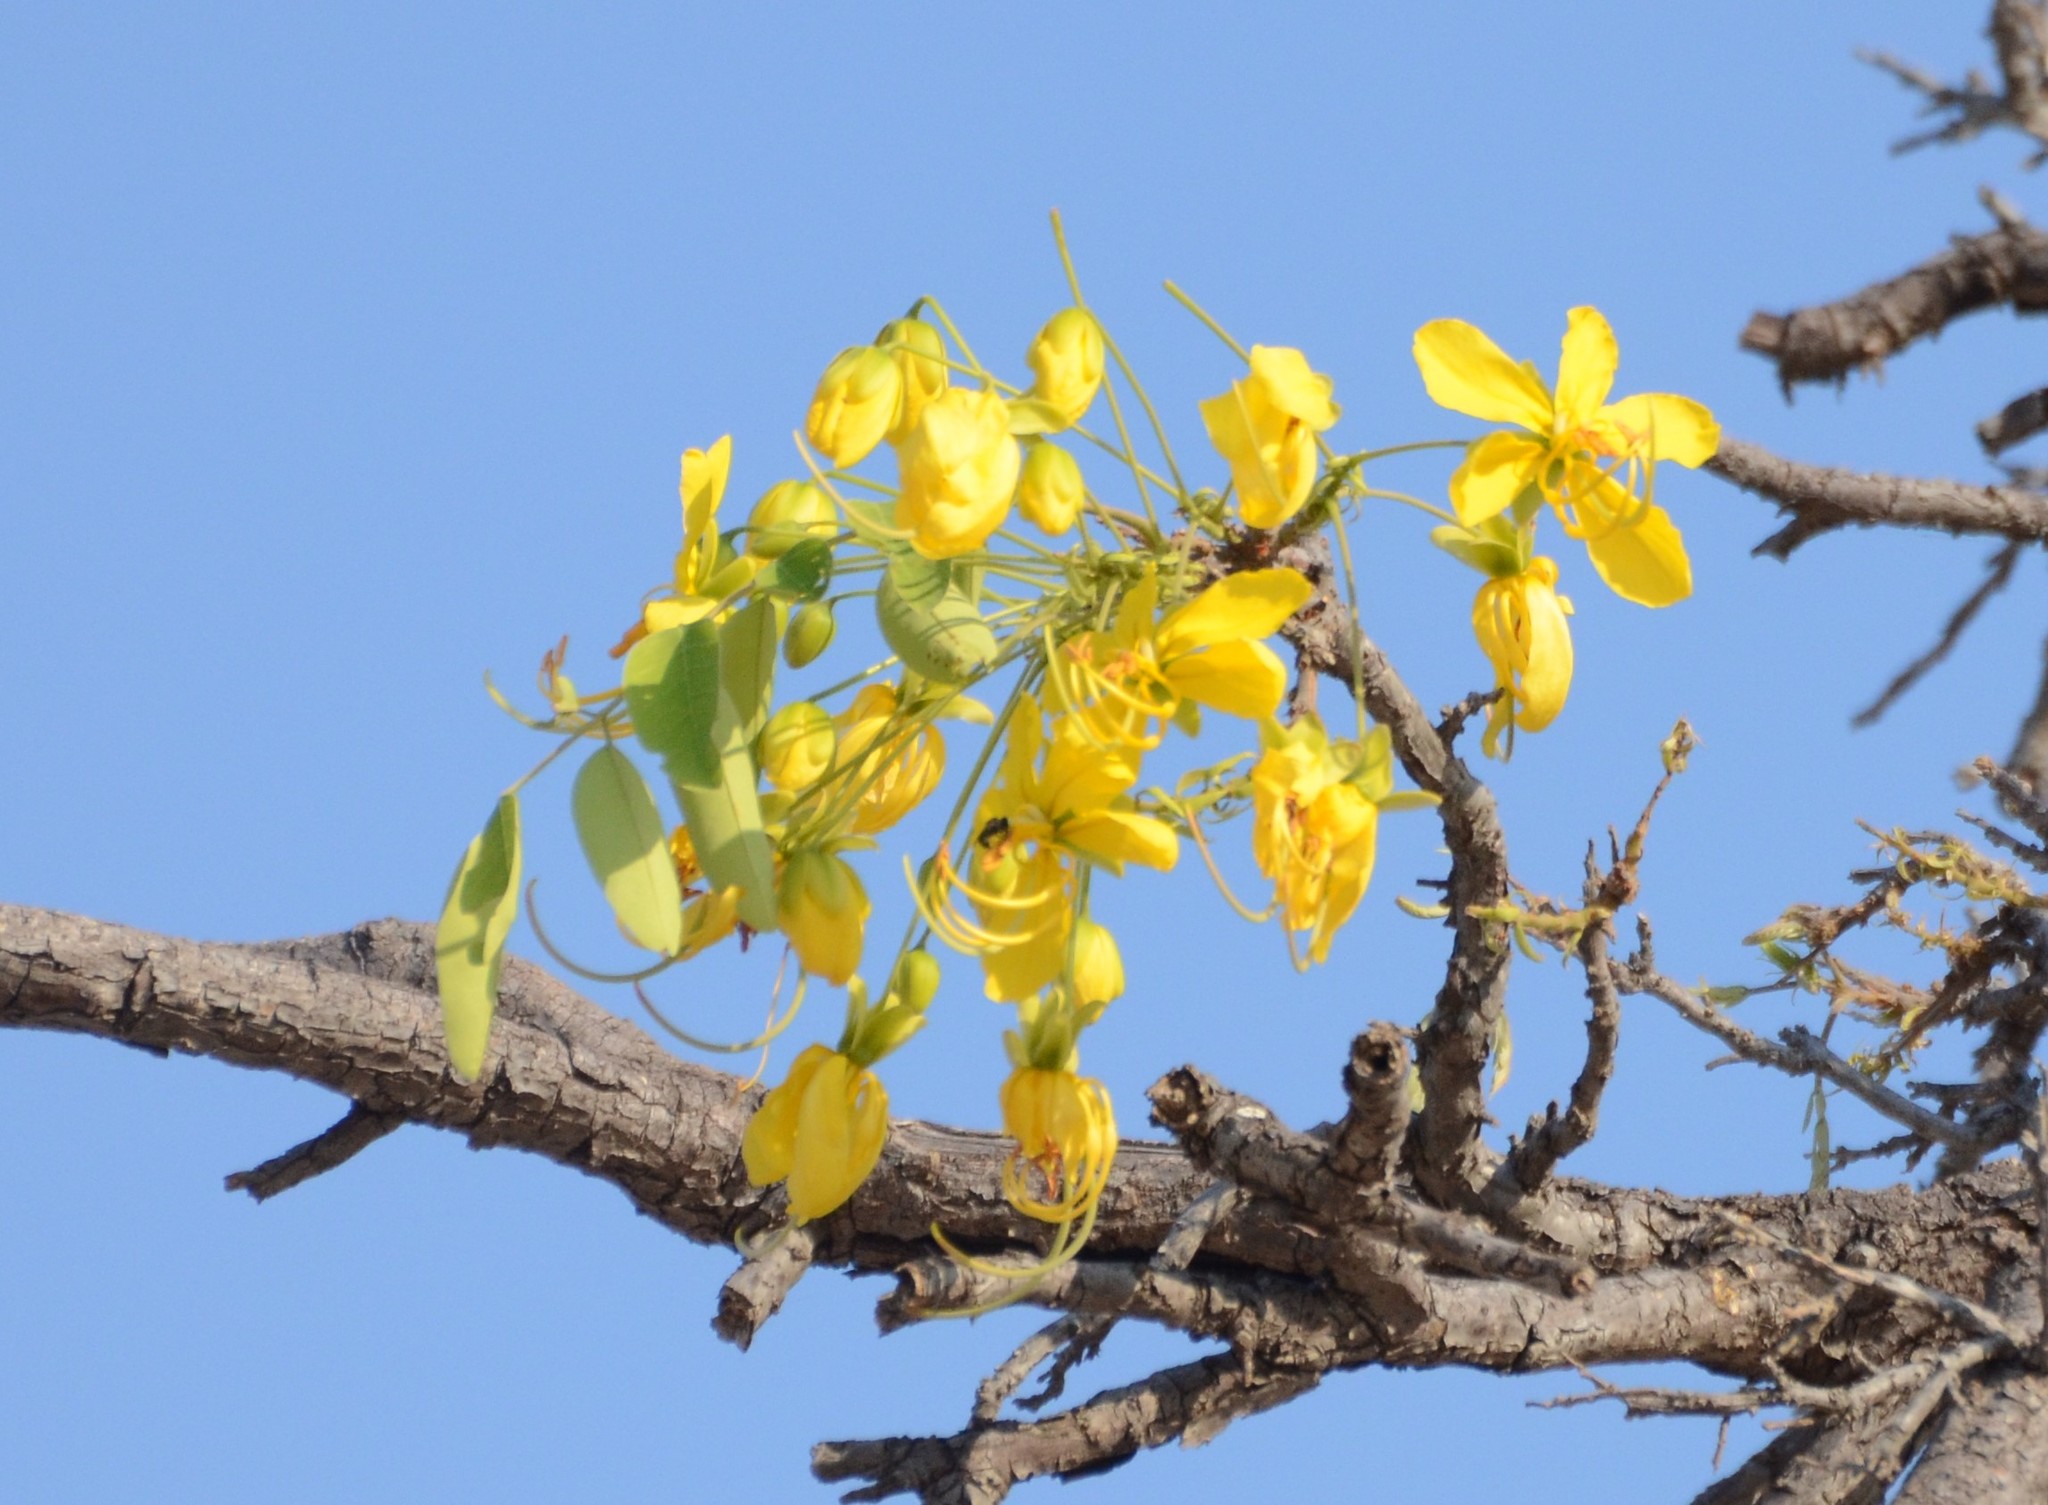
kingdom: Plantae
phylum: Tracheophyta
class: Magnoliopsida
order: Fabales
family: Fabaceae
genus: Cassia
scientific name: Cassia fistula
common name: Golden shower
